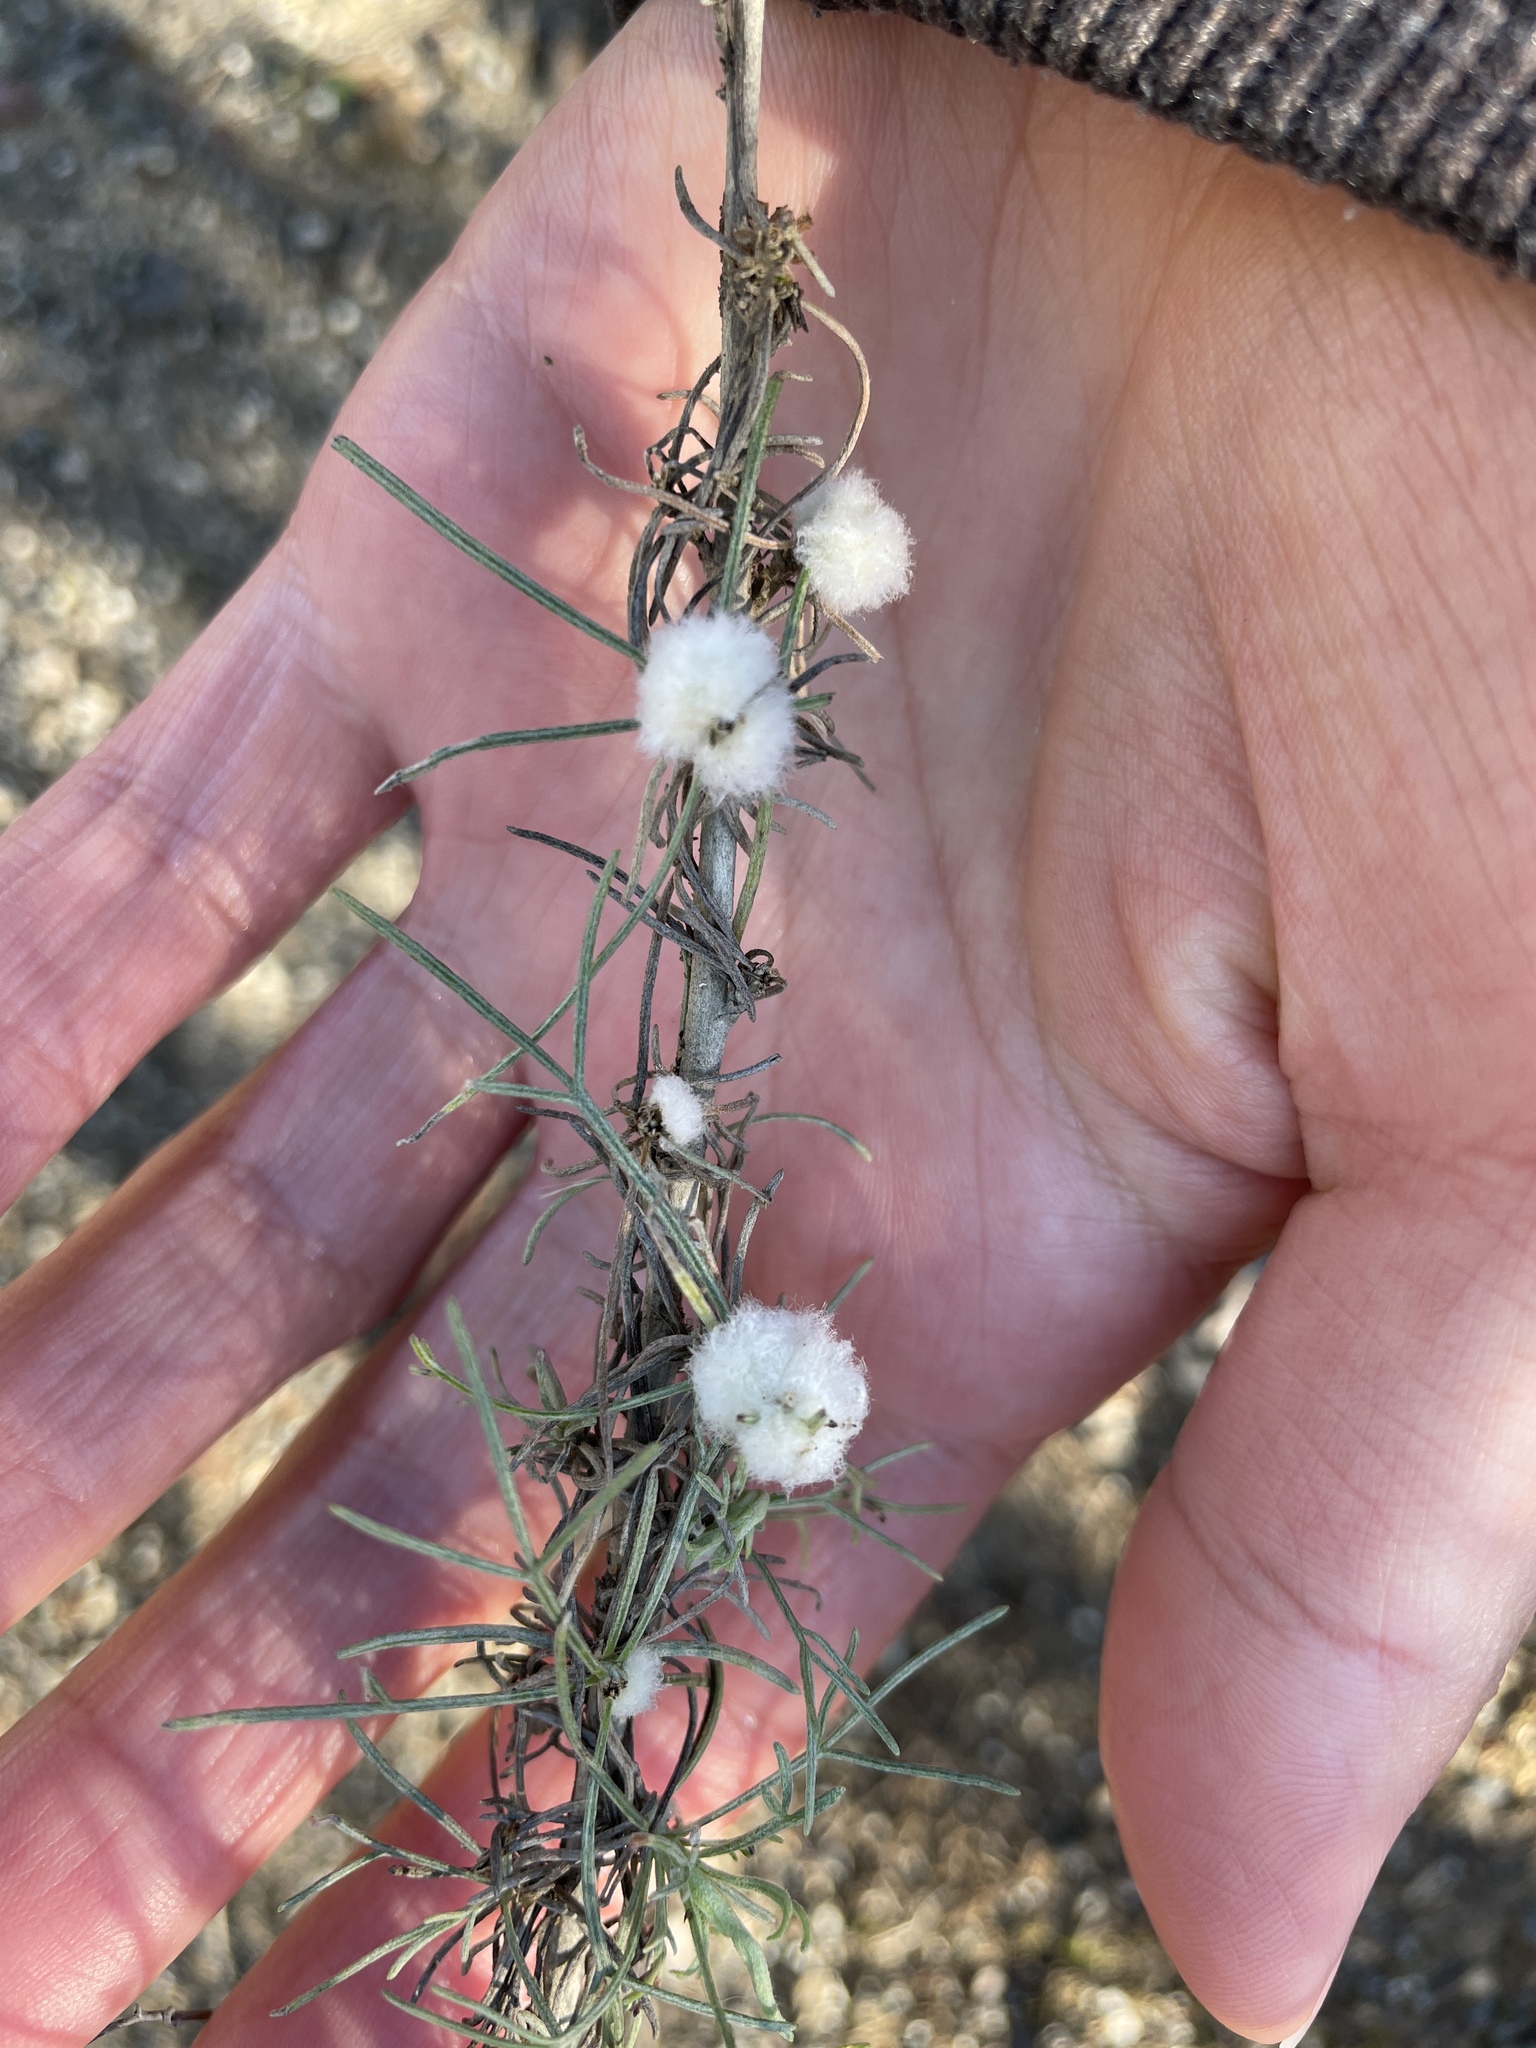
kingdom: Animalia
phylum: Arthropoda
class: Insecta
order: Diptera
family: Cecidomyiidae
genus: Rhopalomyia
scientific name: Rhopalomyia floccosa
